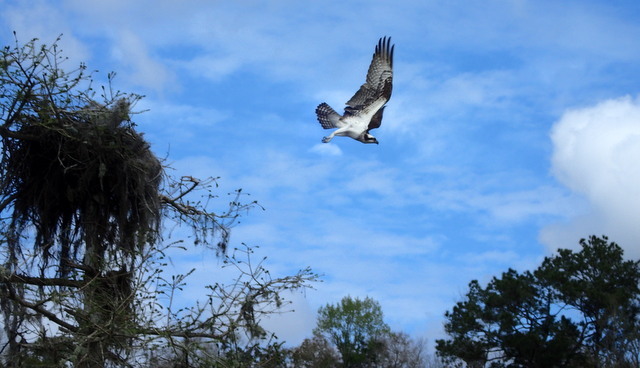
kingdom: Animalia
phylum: Chordata
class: Aves
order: Accipitriformes
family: Pandionidae
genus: Pandion
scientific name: Pandion haliaetus
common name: Osprey
